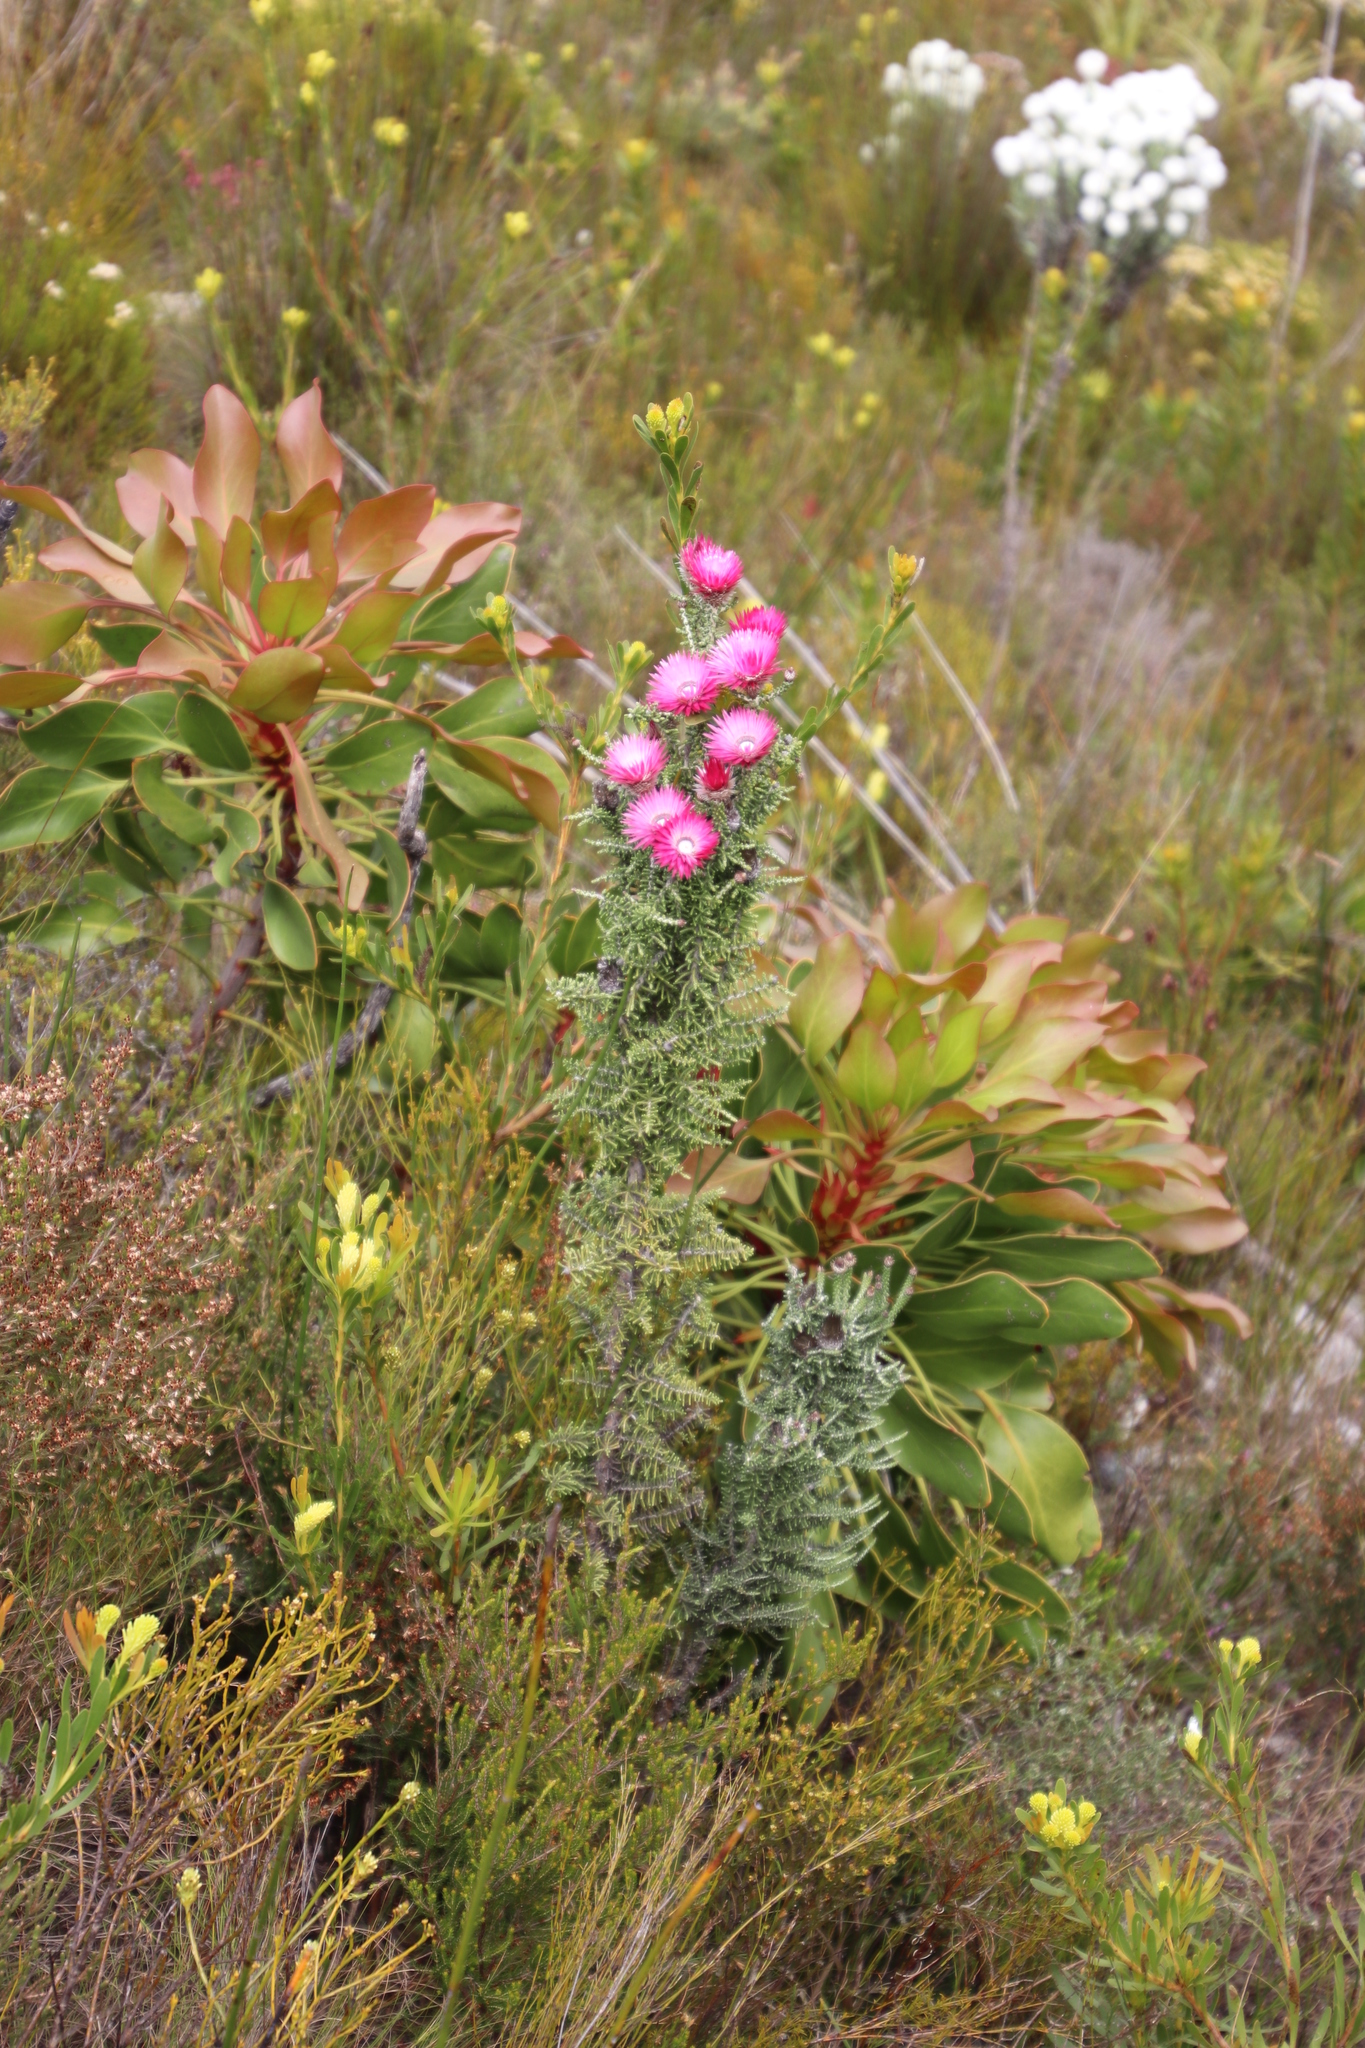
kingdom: Plantae
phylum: Tracheophyta
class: Magnoliopsida
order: Asterales
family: Asteraceae
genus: Phaenocoma
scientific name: Phaenocoma prolifera
